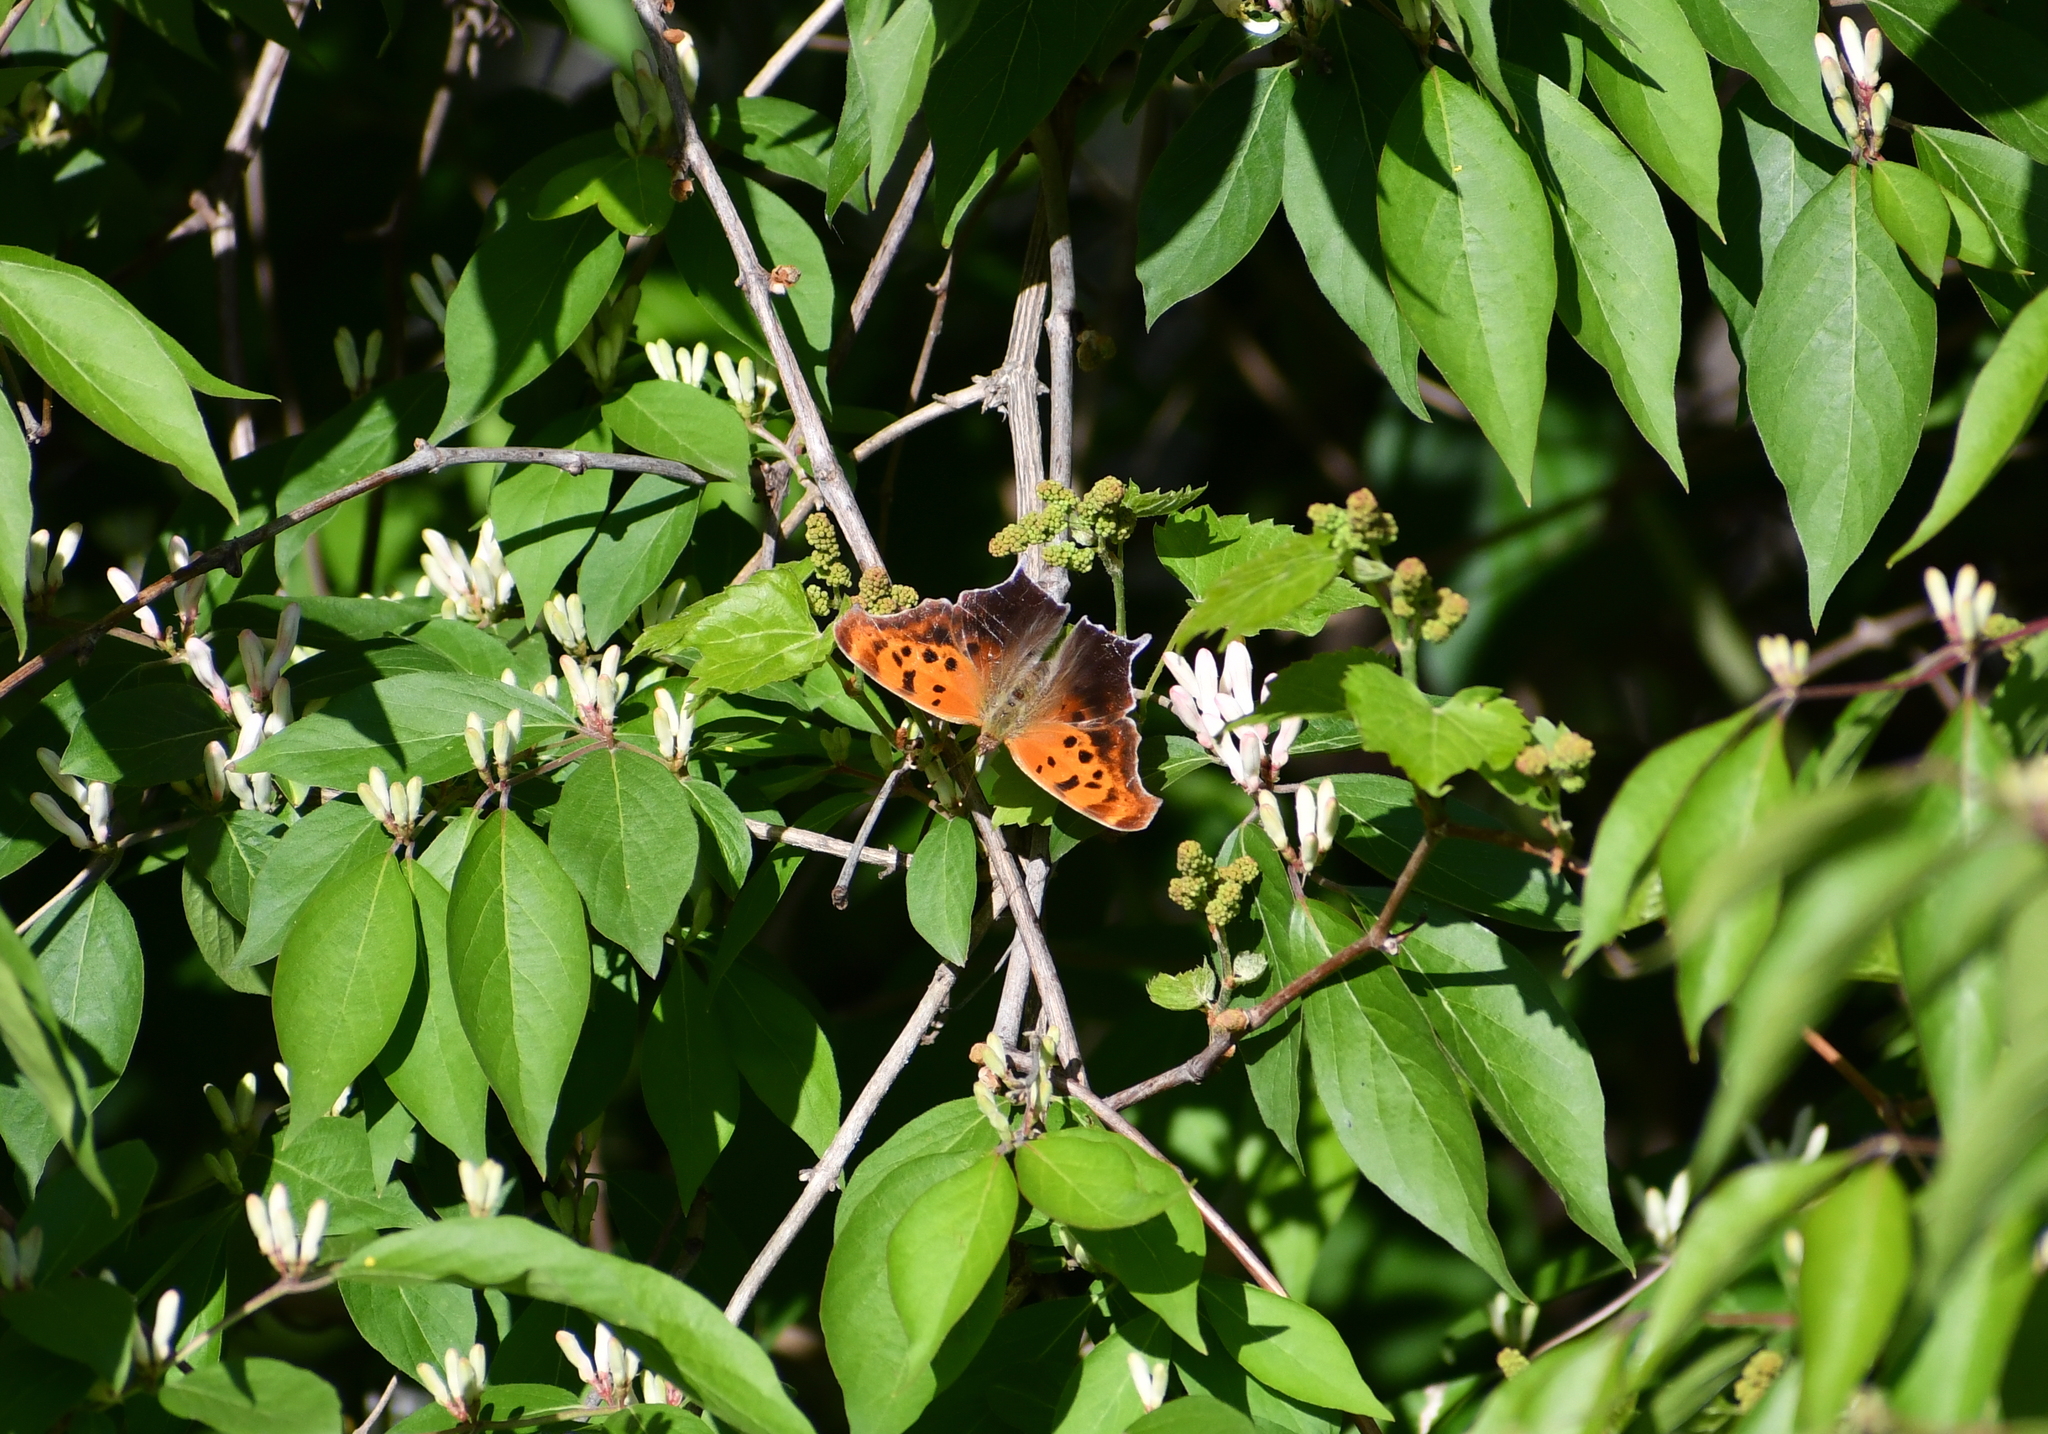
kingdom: Animalia
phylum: Arthropoda
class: Insecta
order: Lepidoptera
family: Nymphalidae
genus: Polygonia
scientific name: Polygonia interrogationis
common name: Question mark
